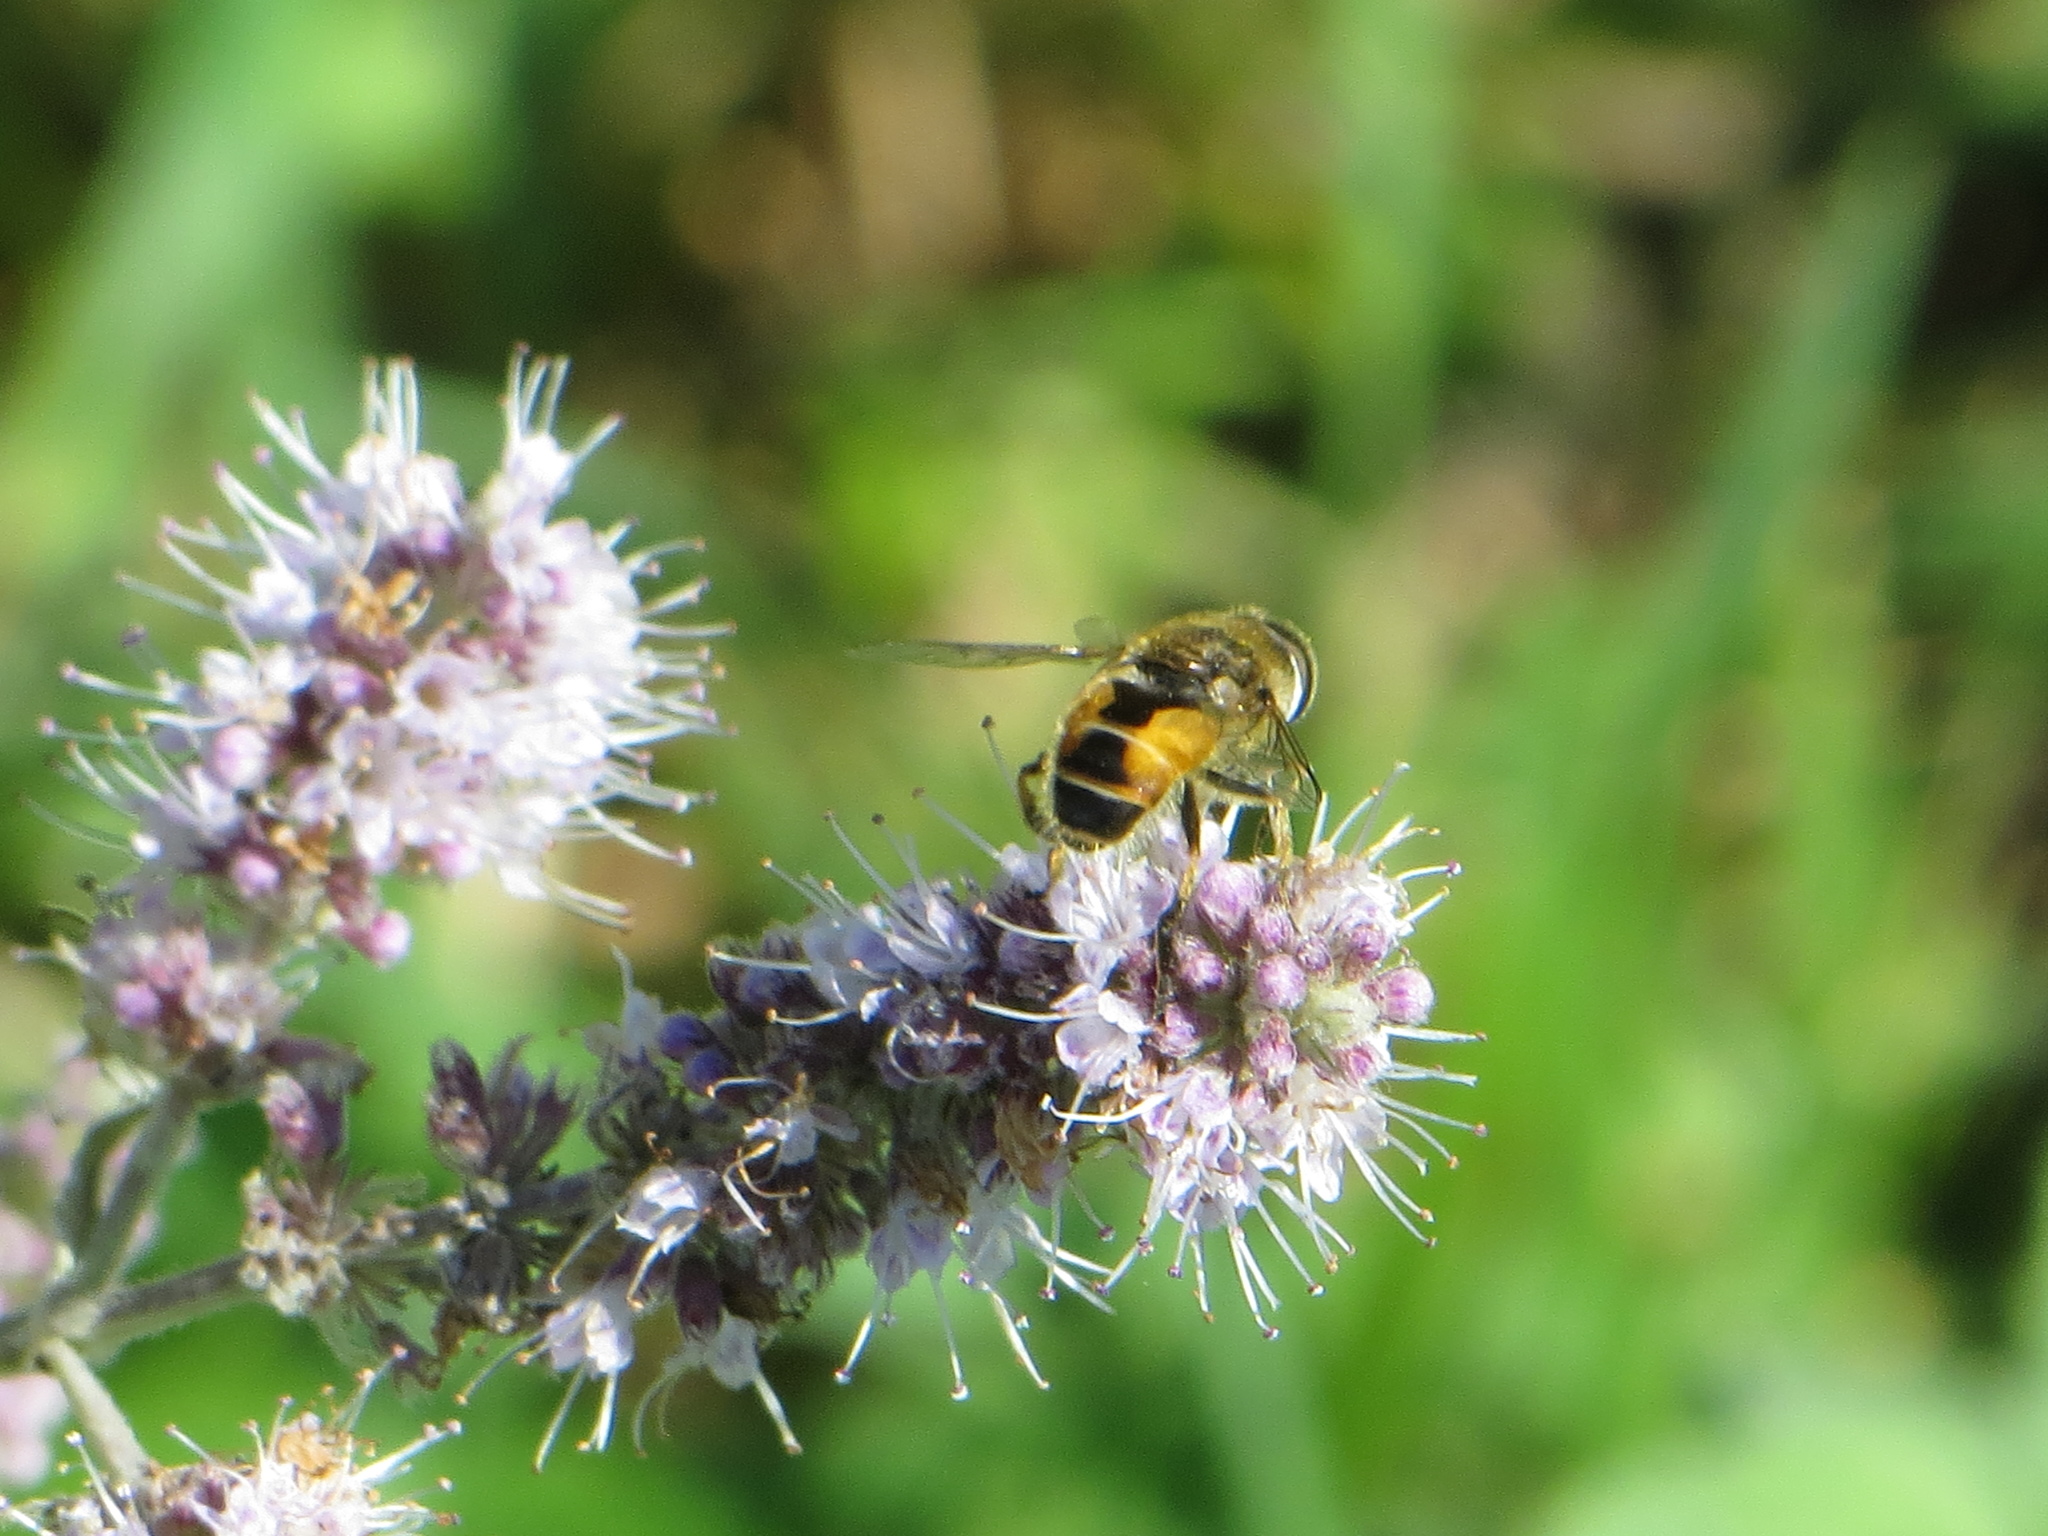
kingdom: Animalia
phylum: Arthropoda
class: Insecta
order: Diptera
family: Syrphidae
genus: Eristalis
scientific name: Eristalis arbustorum
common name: Hover fly
